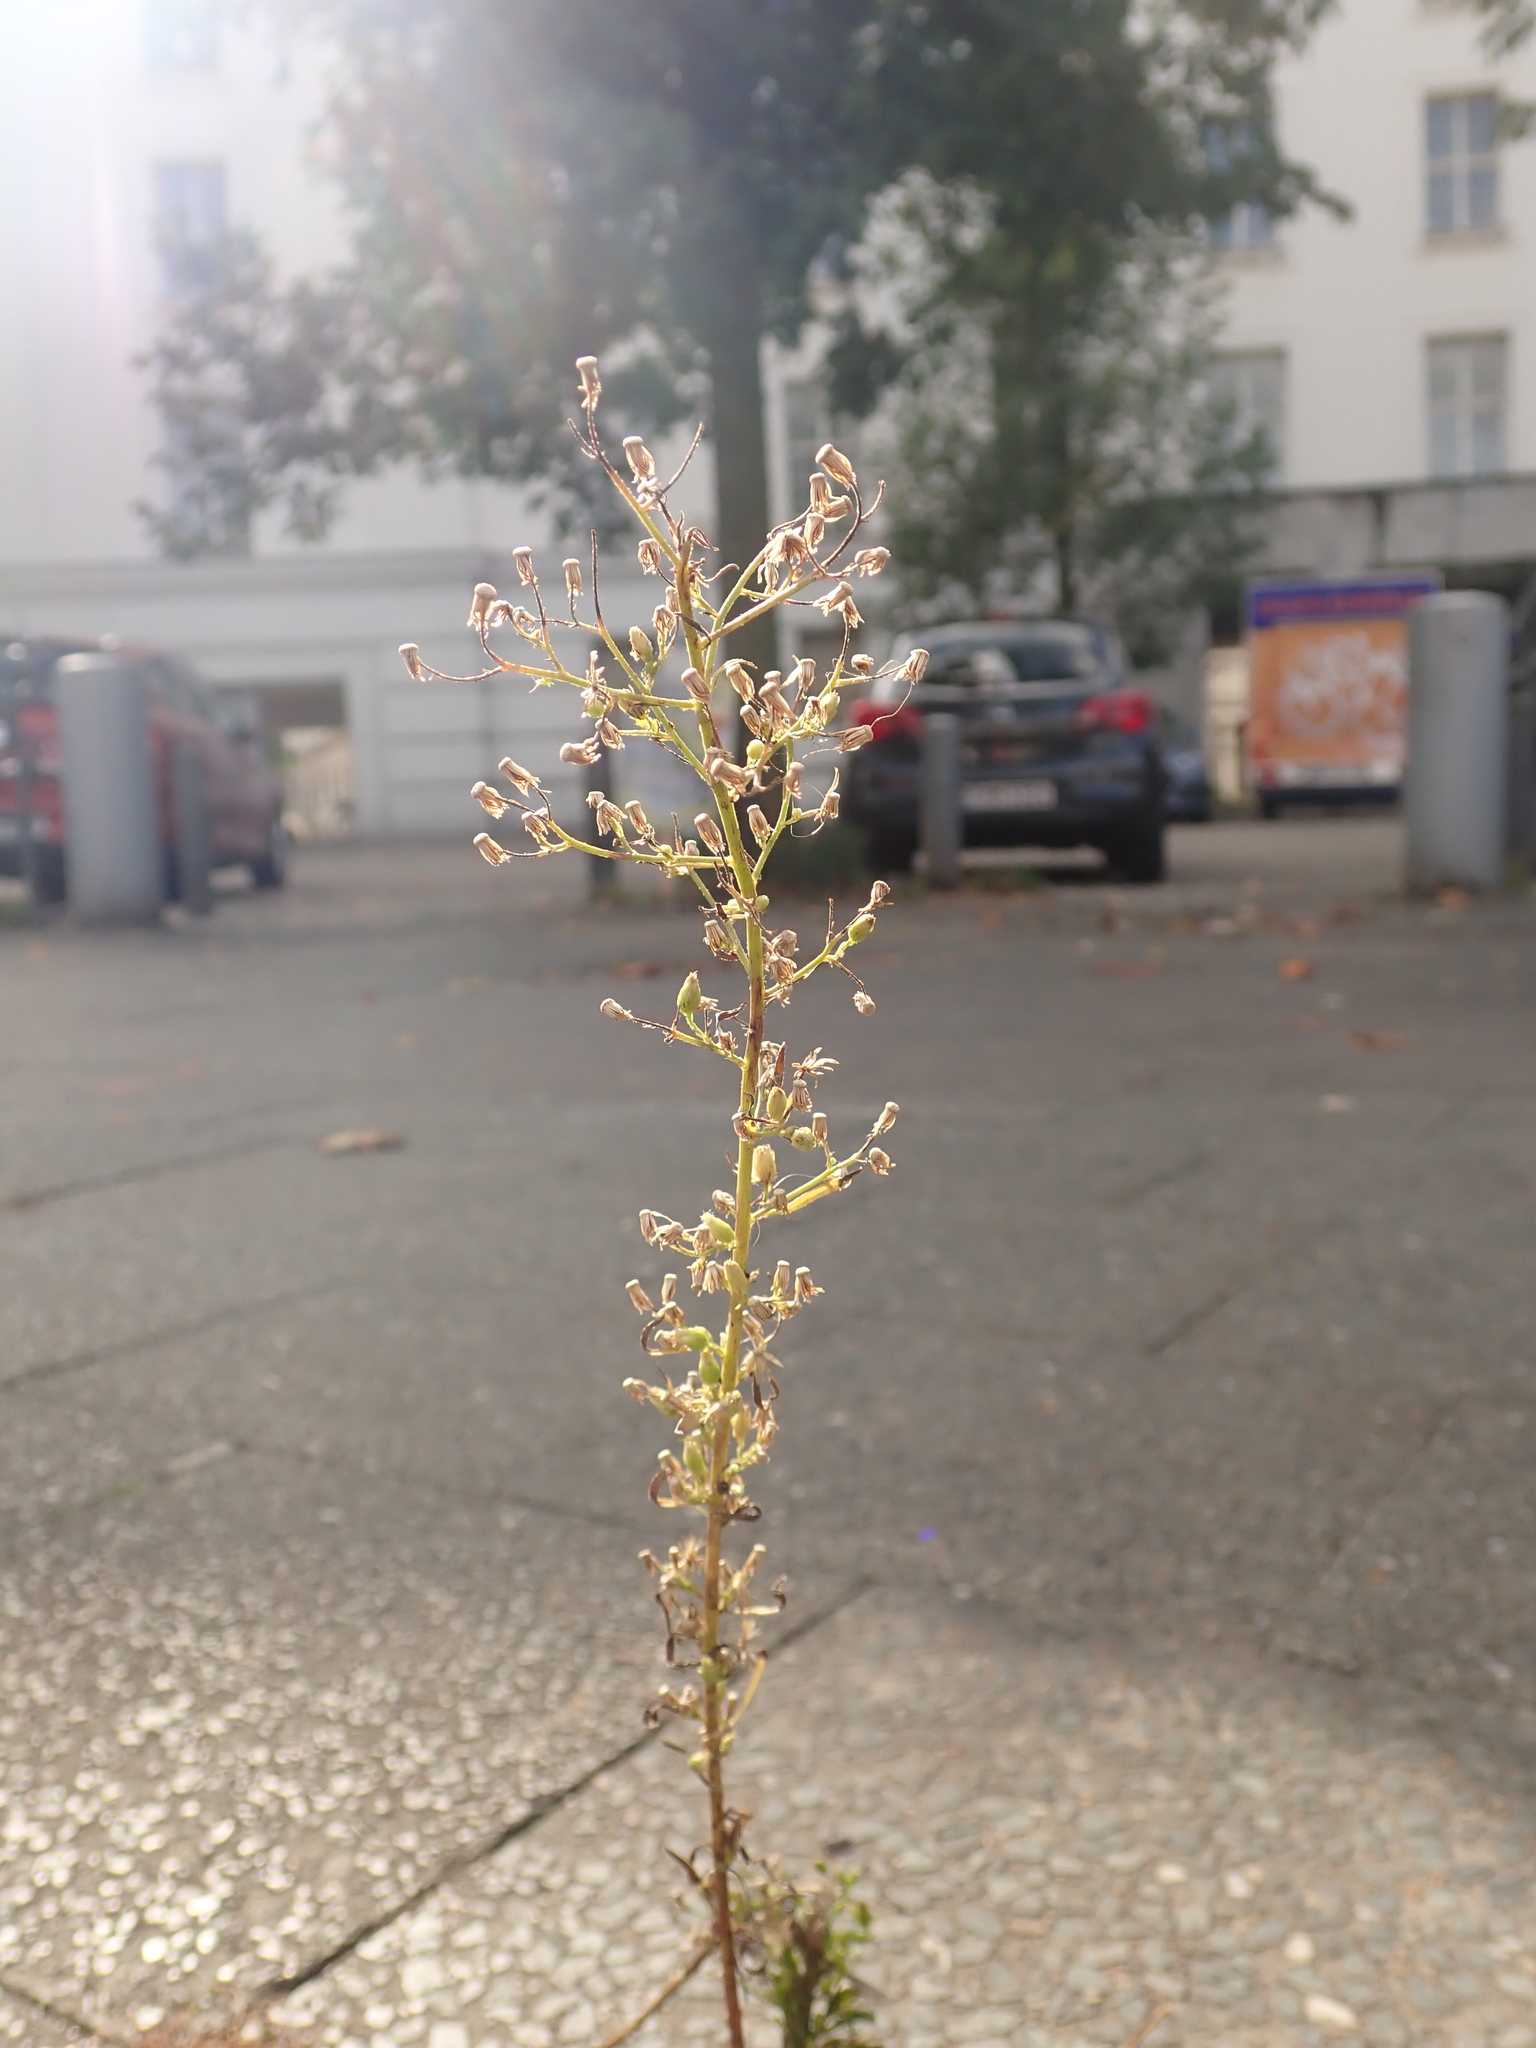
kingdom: Plantae
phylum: Tracheophyta
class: Magnoliopsida
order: Asterales
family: Asteraceae
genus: Erigeron
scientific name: Erigeron canadensis
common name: Canadian fleabane
